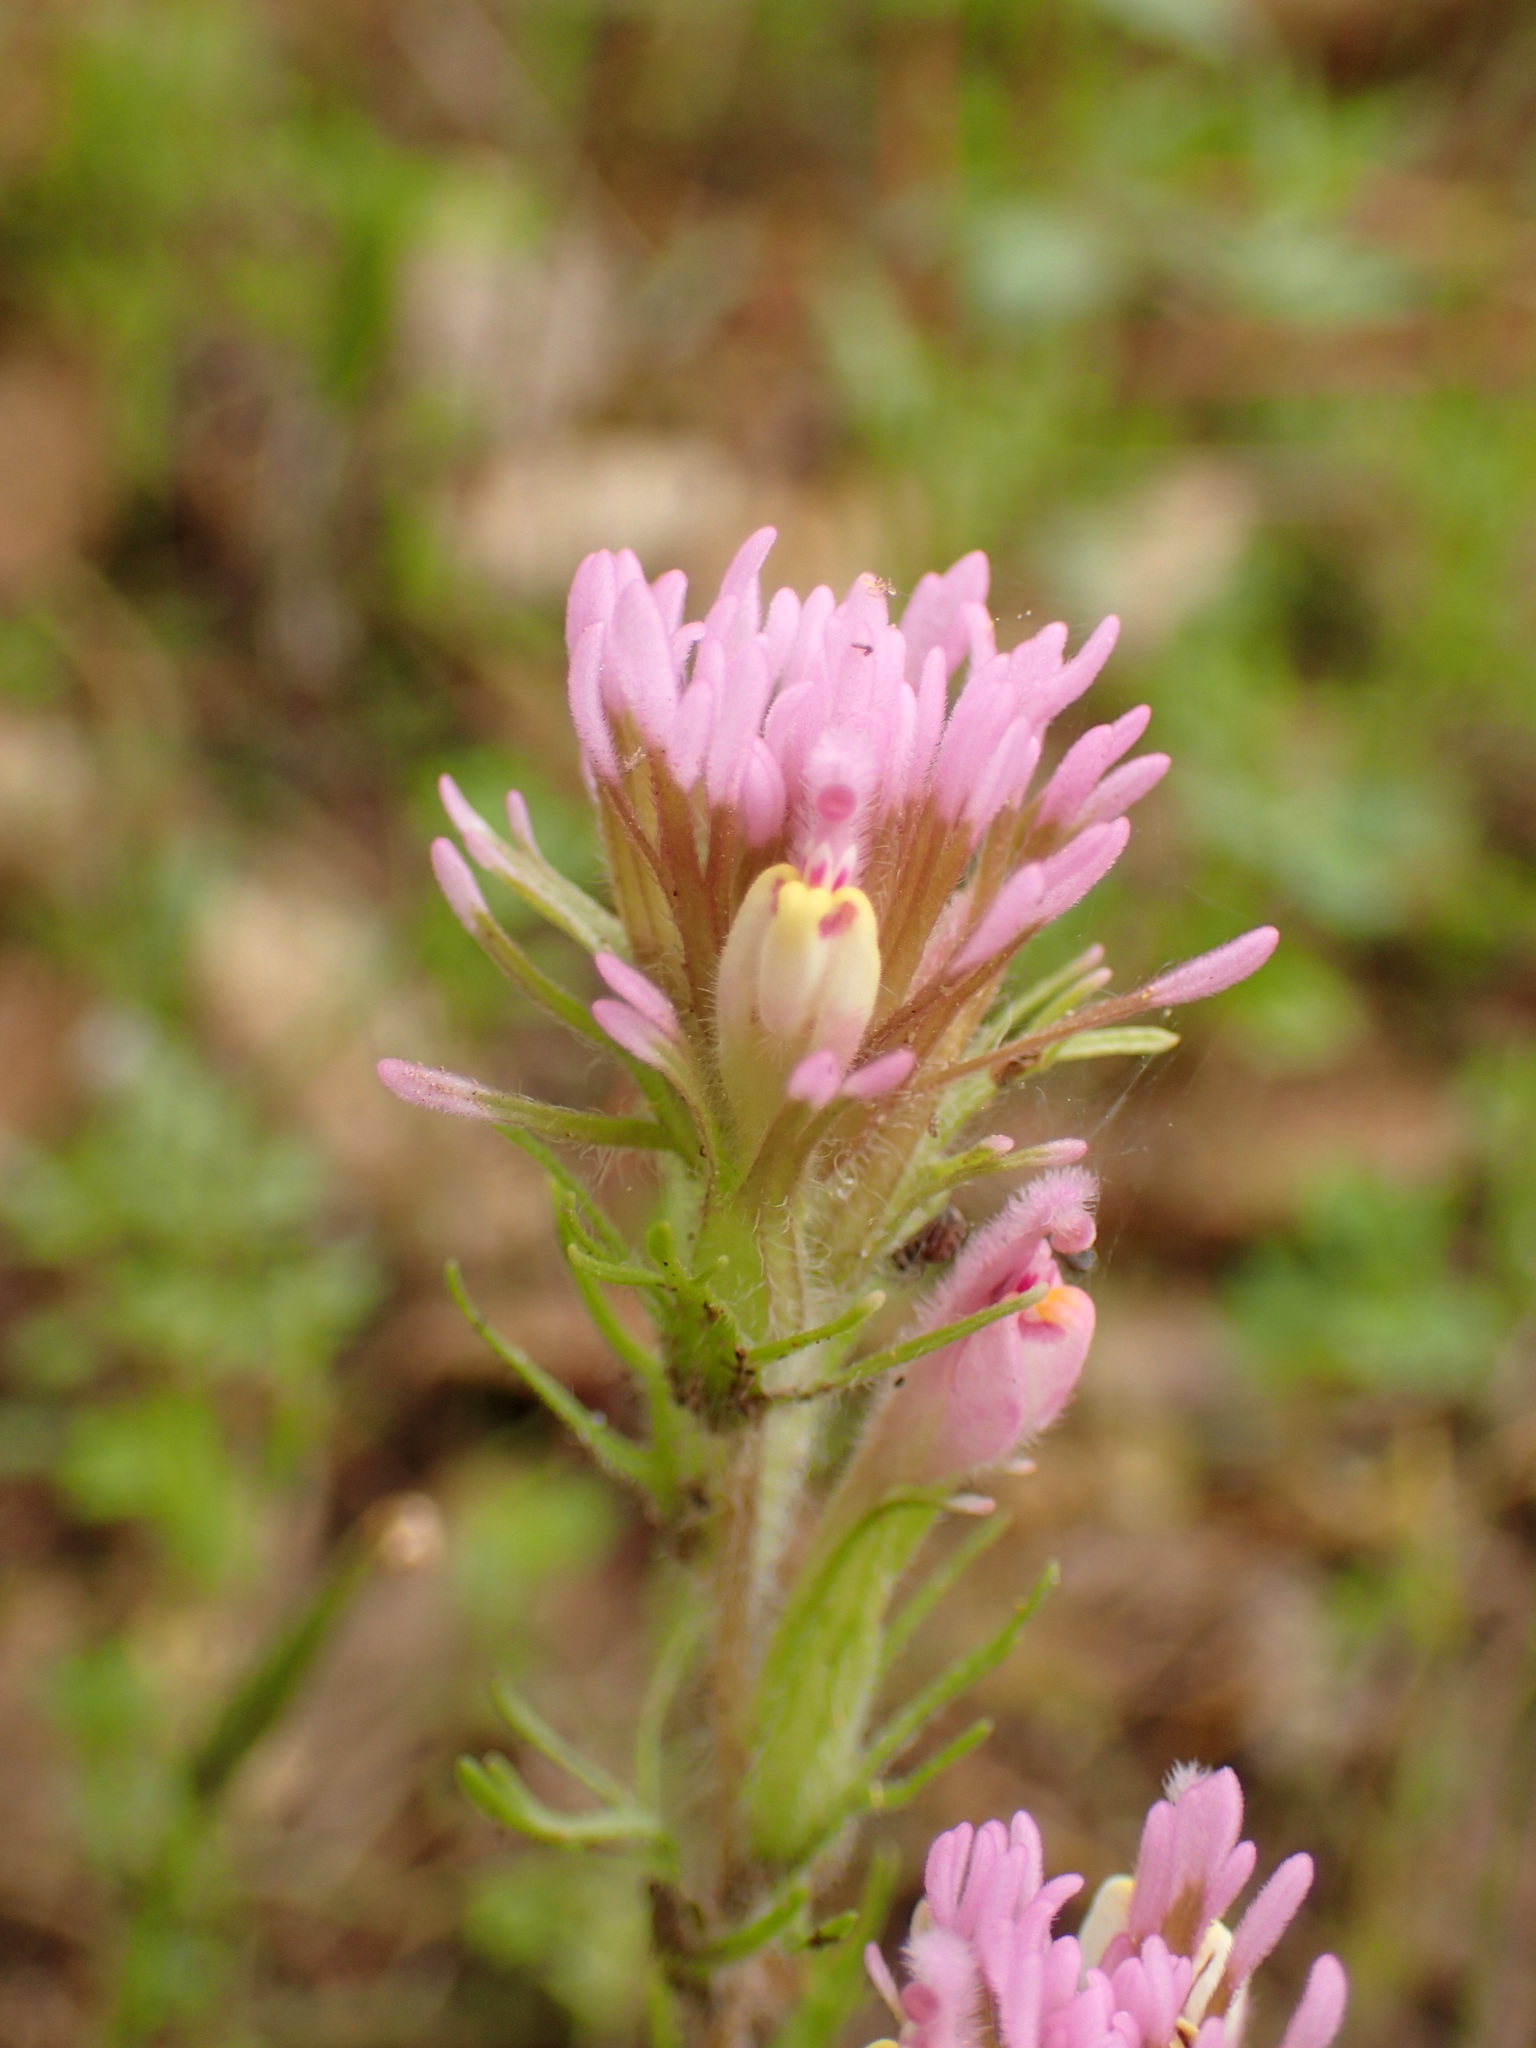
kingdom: Plantae
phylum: Tracheophyta
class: Magnoliopsida
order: Lamiales
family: Orobanchaceae
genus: Castilleja
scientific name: Castilleja exserta
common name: Purple owl-clover
